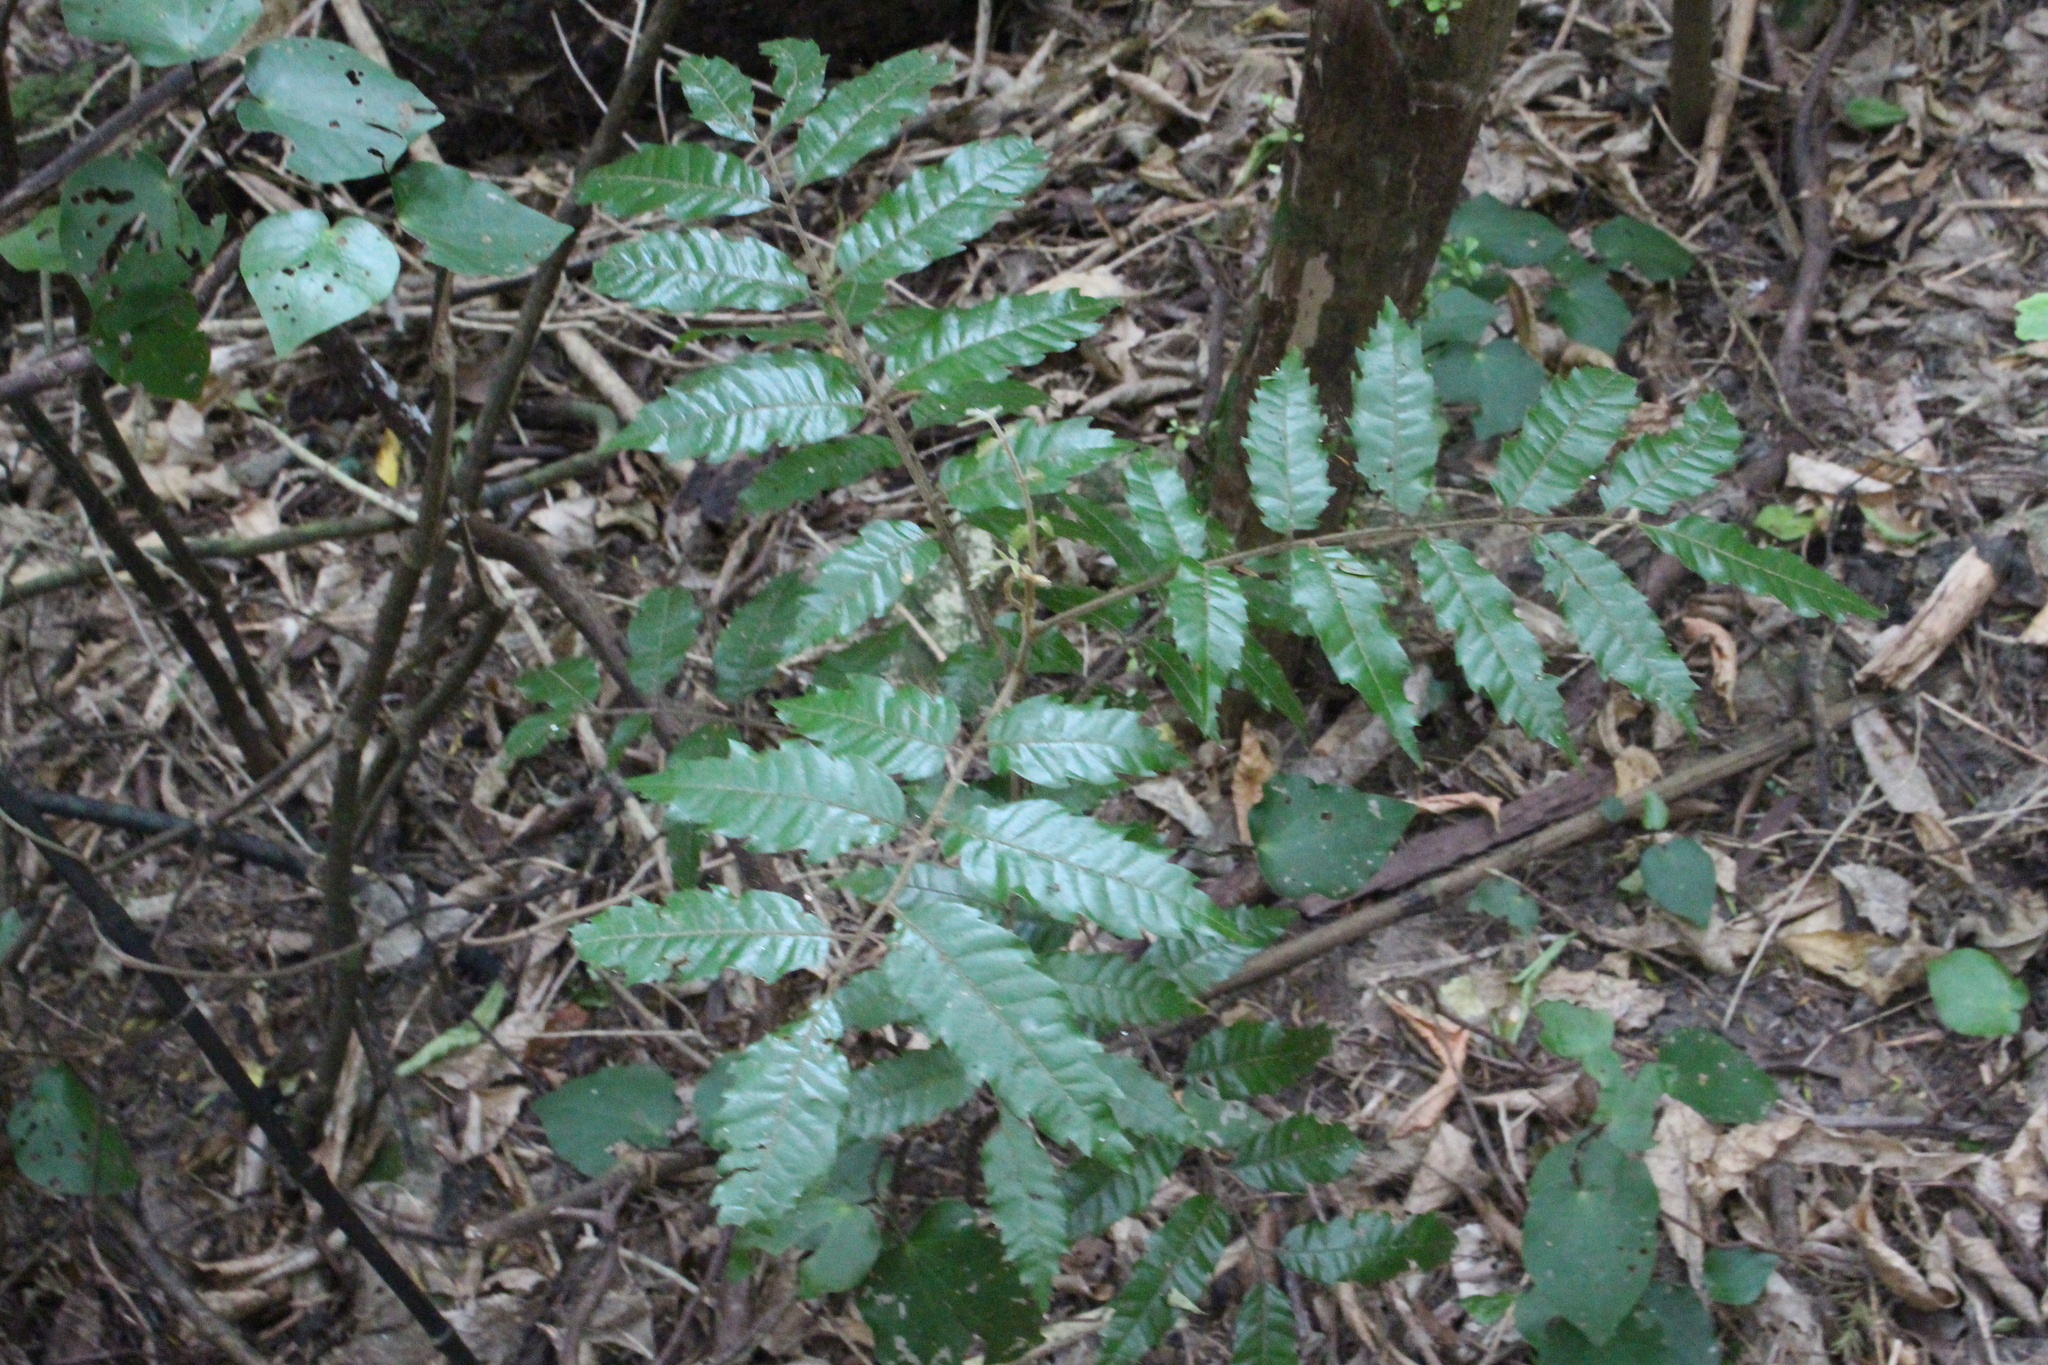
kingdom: Plantae
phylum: Tracheophyta
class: Magnoliopsida
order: Sapindales
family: Sapindaceae
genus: Alectryon
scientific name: Alectryon excelsus
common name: Three kings titoki
